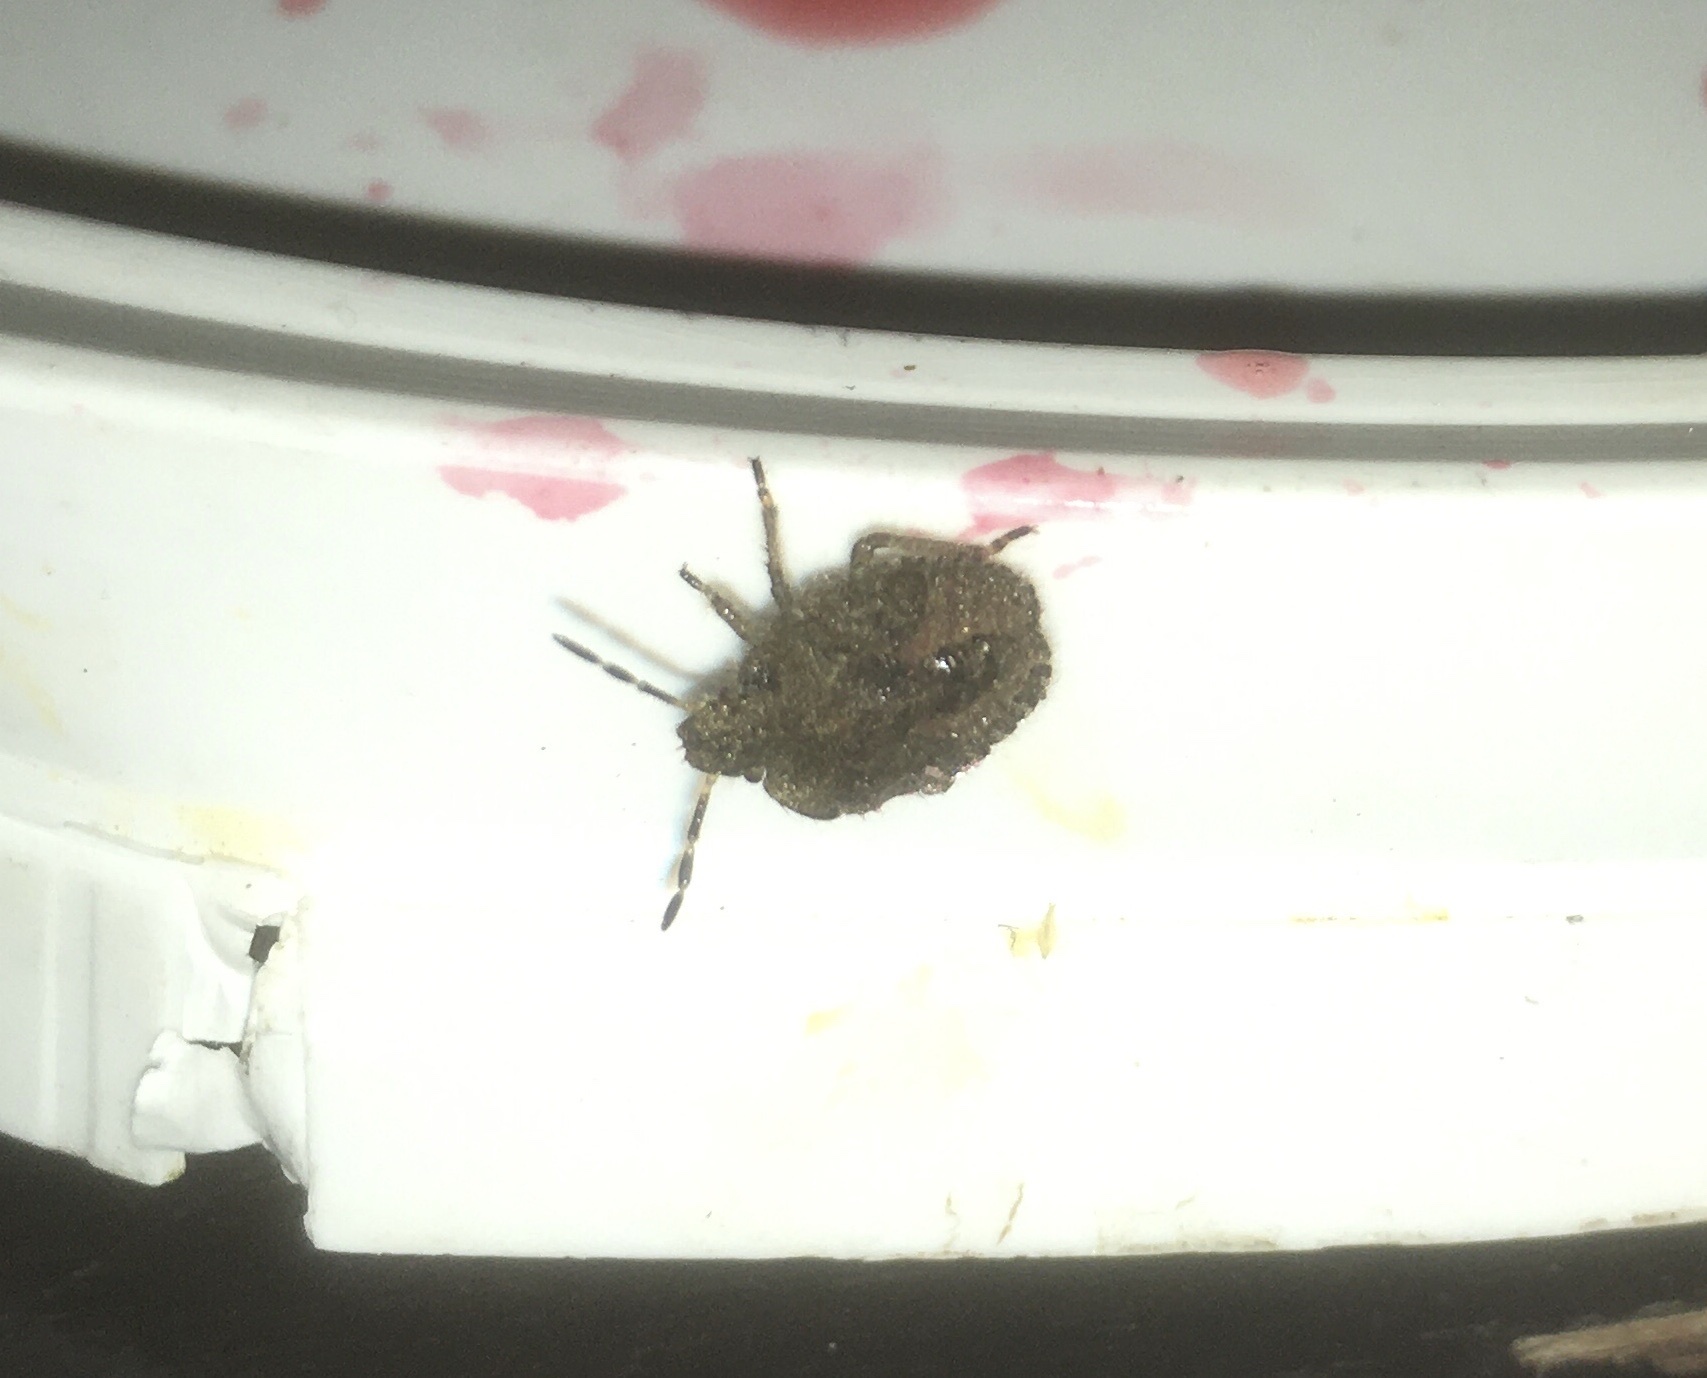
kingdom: Animalia
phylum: Arthropoda
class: Insecta
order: Hemiptera
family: Pentatomidae
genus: Dolycoris
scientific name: Dolycoris baccarum
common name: Sloe bug
